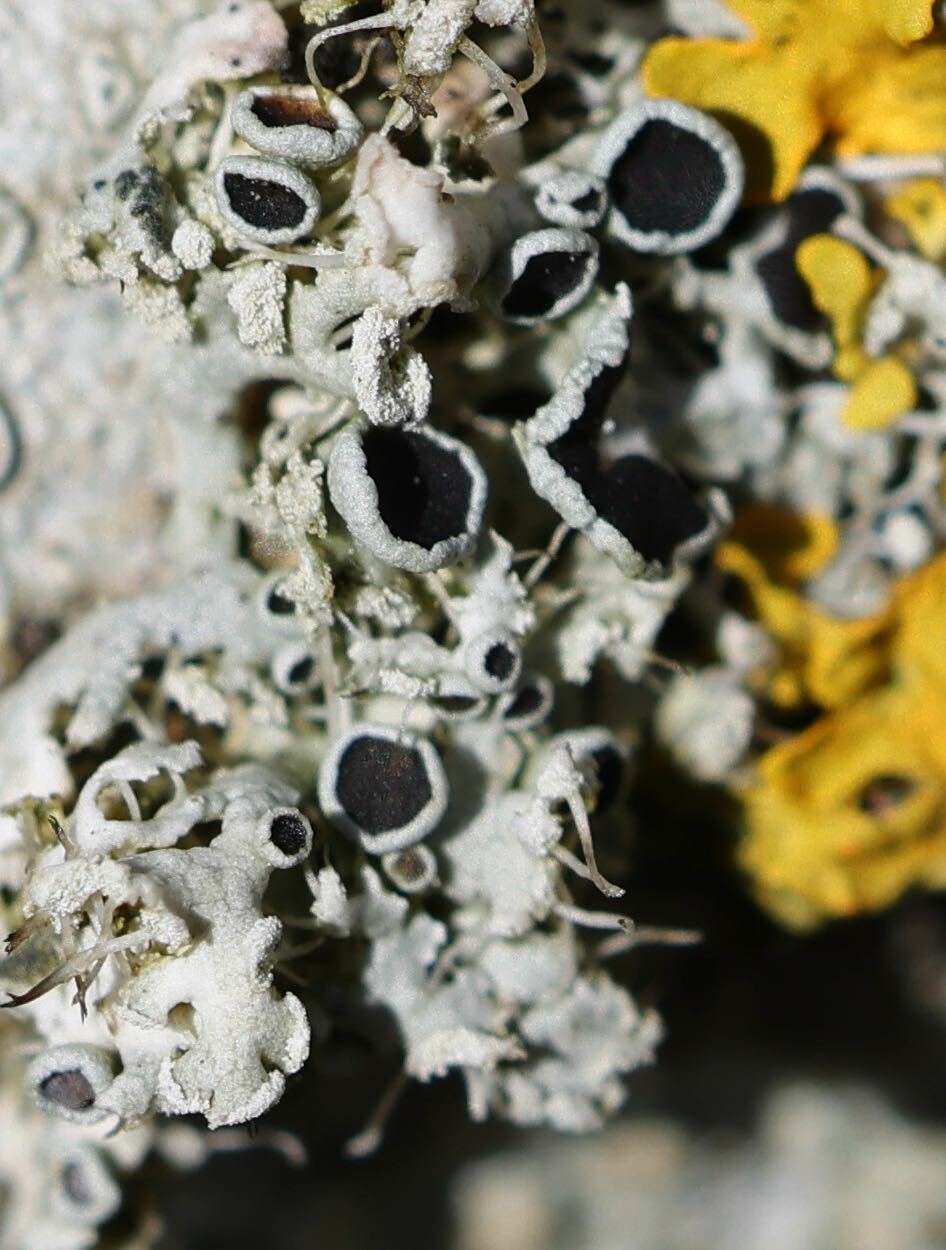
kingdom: Fungi
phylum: Ascomycota
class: Lecanoromycetes
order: Caliciales
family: Physciaceae
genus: Physcia
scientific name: Physcia tenella
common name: Fringed rosette lichen
